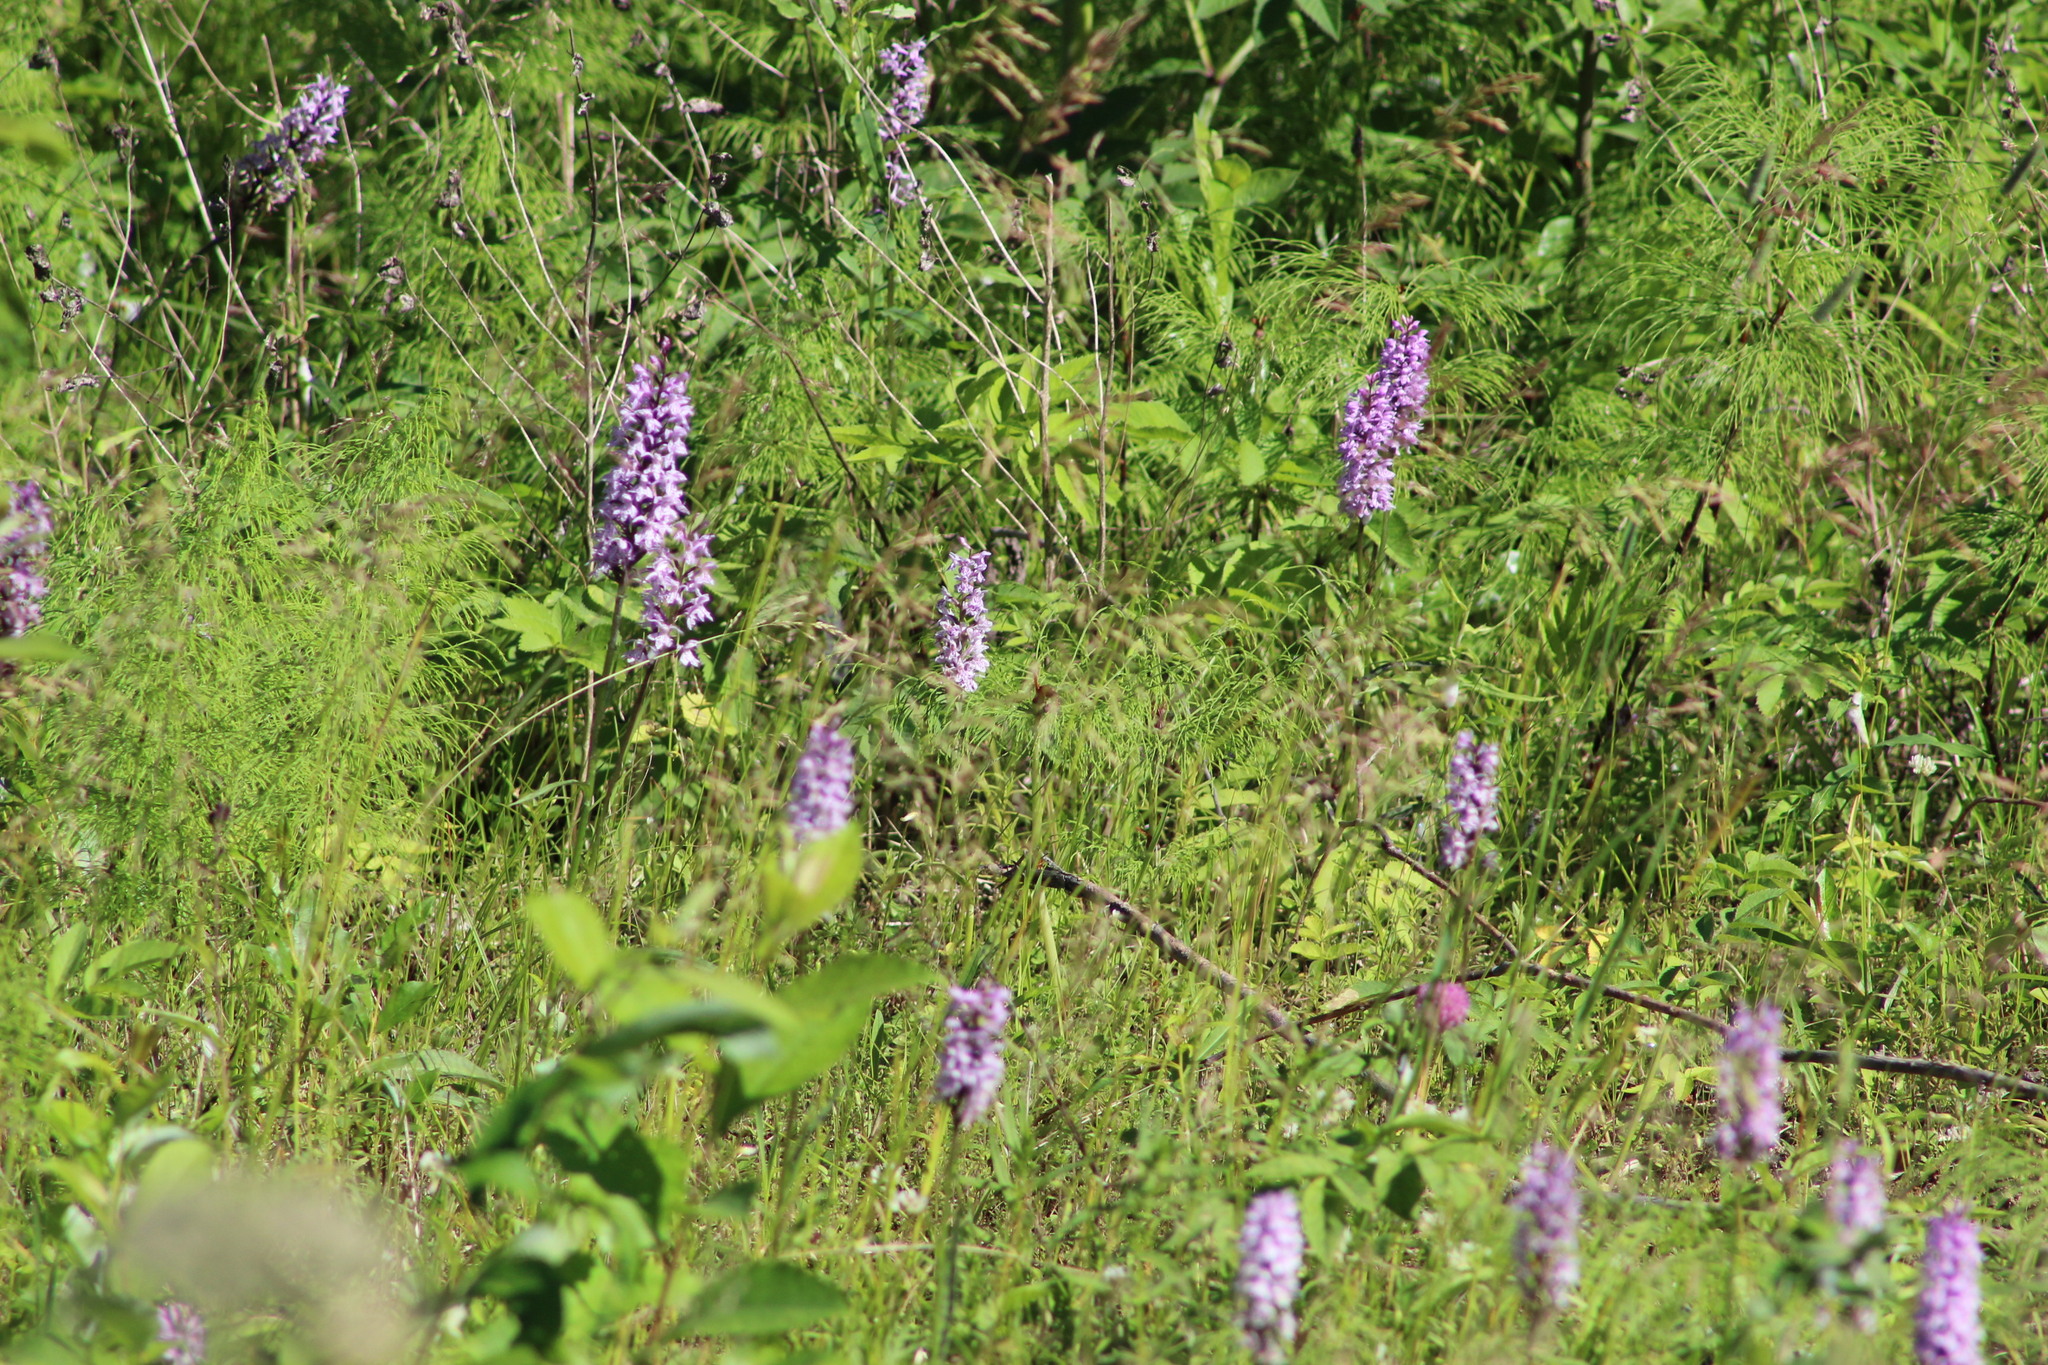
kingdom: Plantae
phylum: Tracheophyta
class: Liliopsida
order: Asparagales
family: Orchidaceae
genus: Dactylorhiza
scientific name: Dactylorhiza maculata
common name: Heath spotted-orchid
